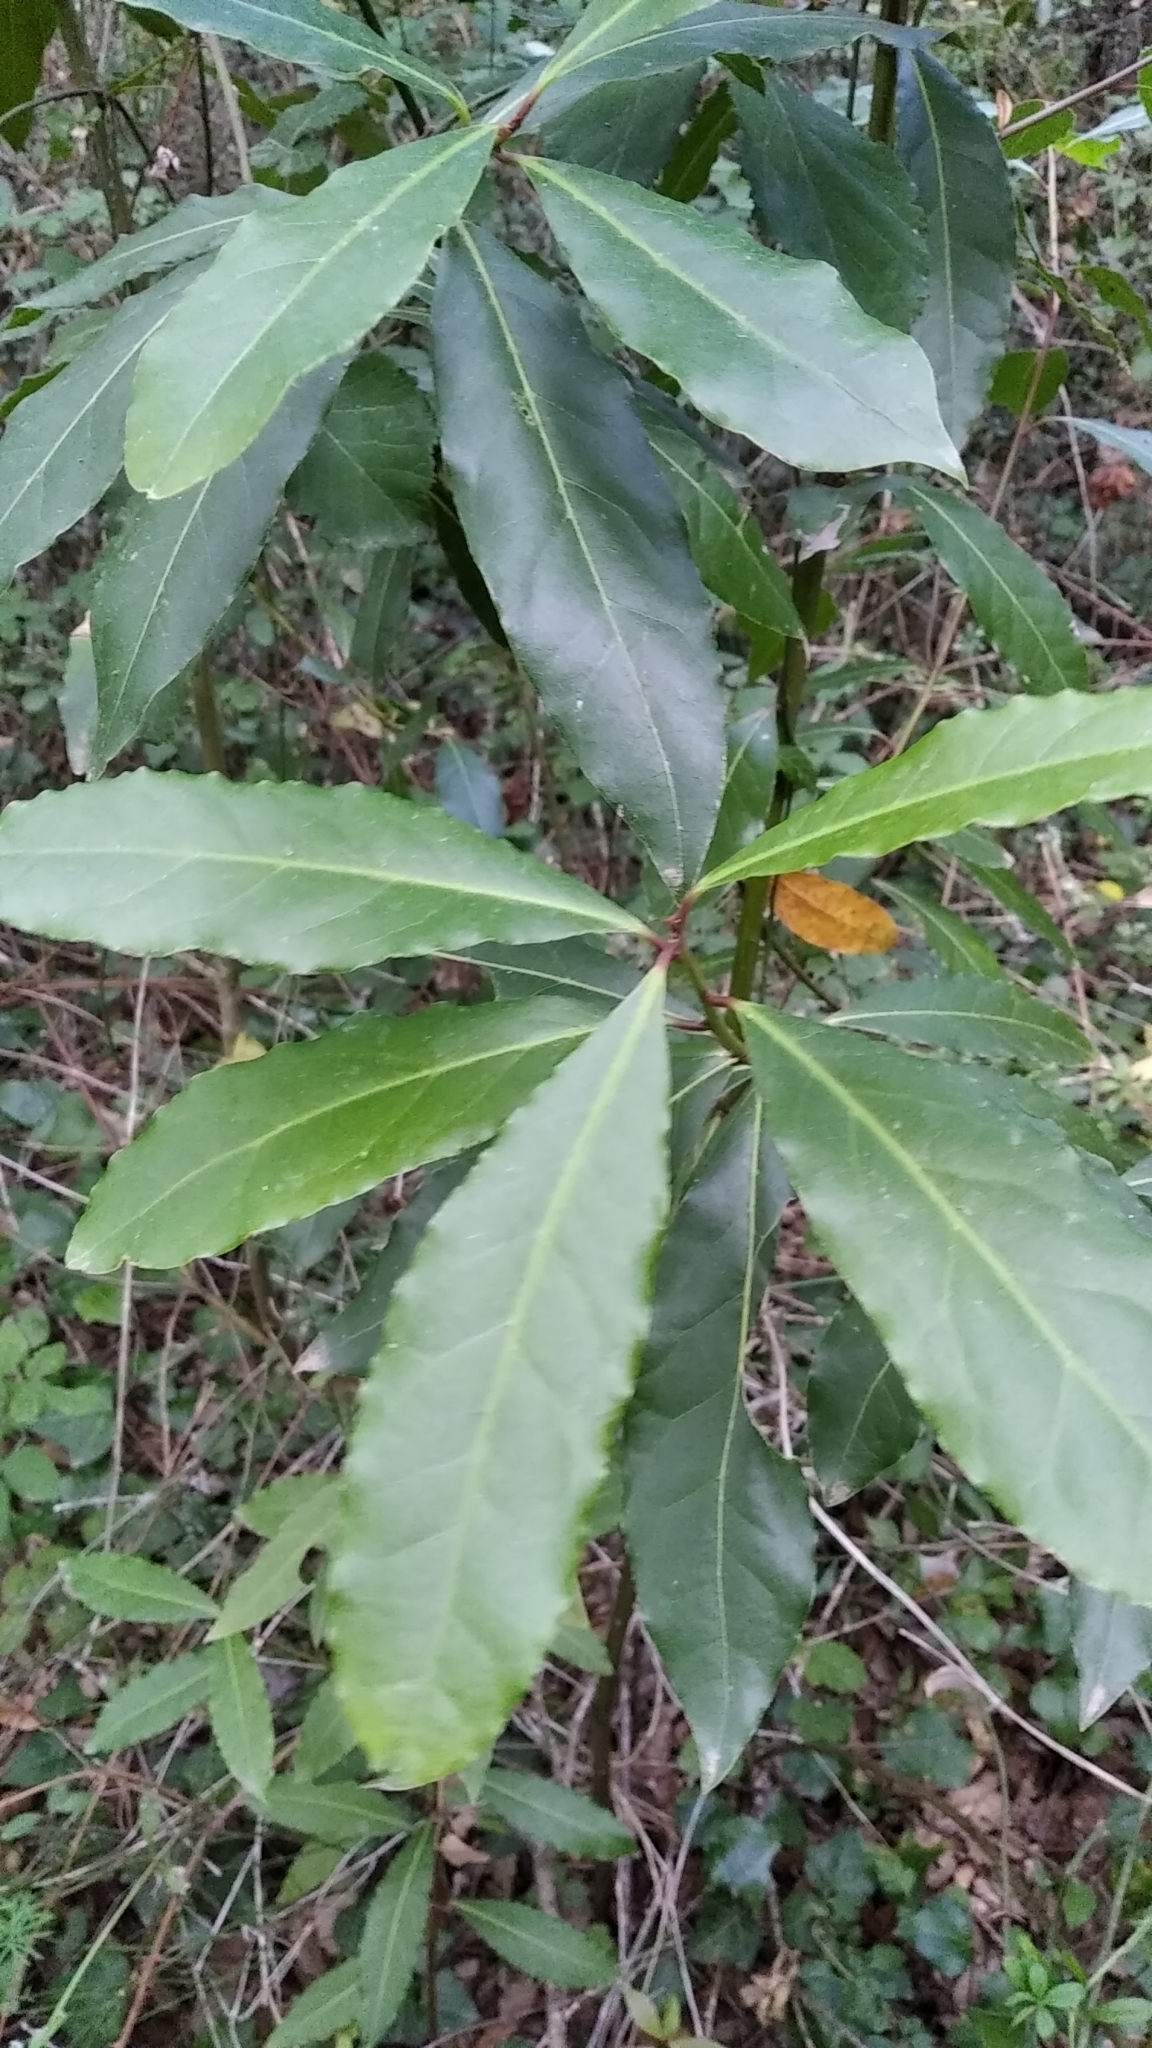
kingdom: Plantae
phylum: Tracheophyta
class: Magnoliopsida
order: Laurales
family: Lauraceae
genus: Laurus
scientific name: Laurus nobilis
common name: Bay
